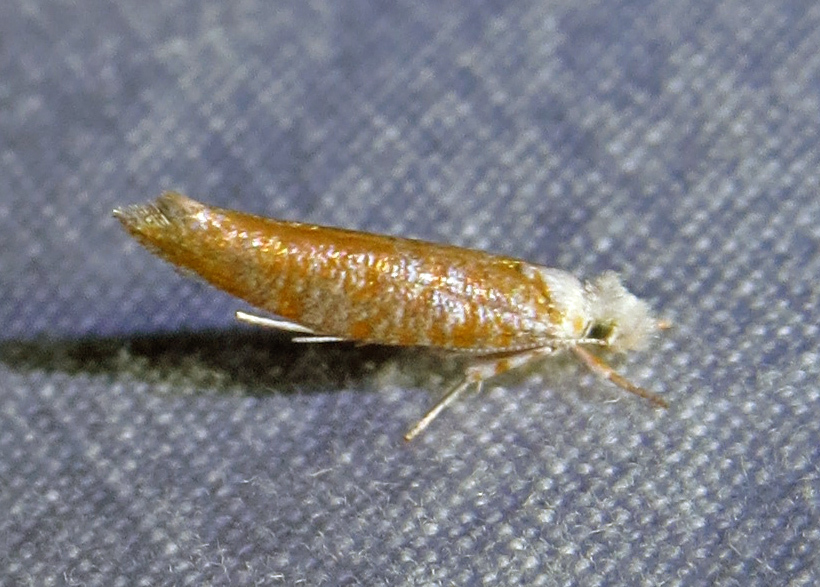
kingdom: Animalia
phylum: Arthropoda
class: Insecta
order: Lepidoptera
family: Yponomeutidae
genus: Zelleria
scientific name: Zelleria retiniella
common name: Brindled zelleria
